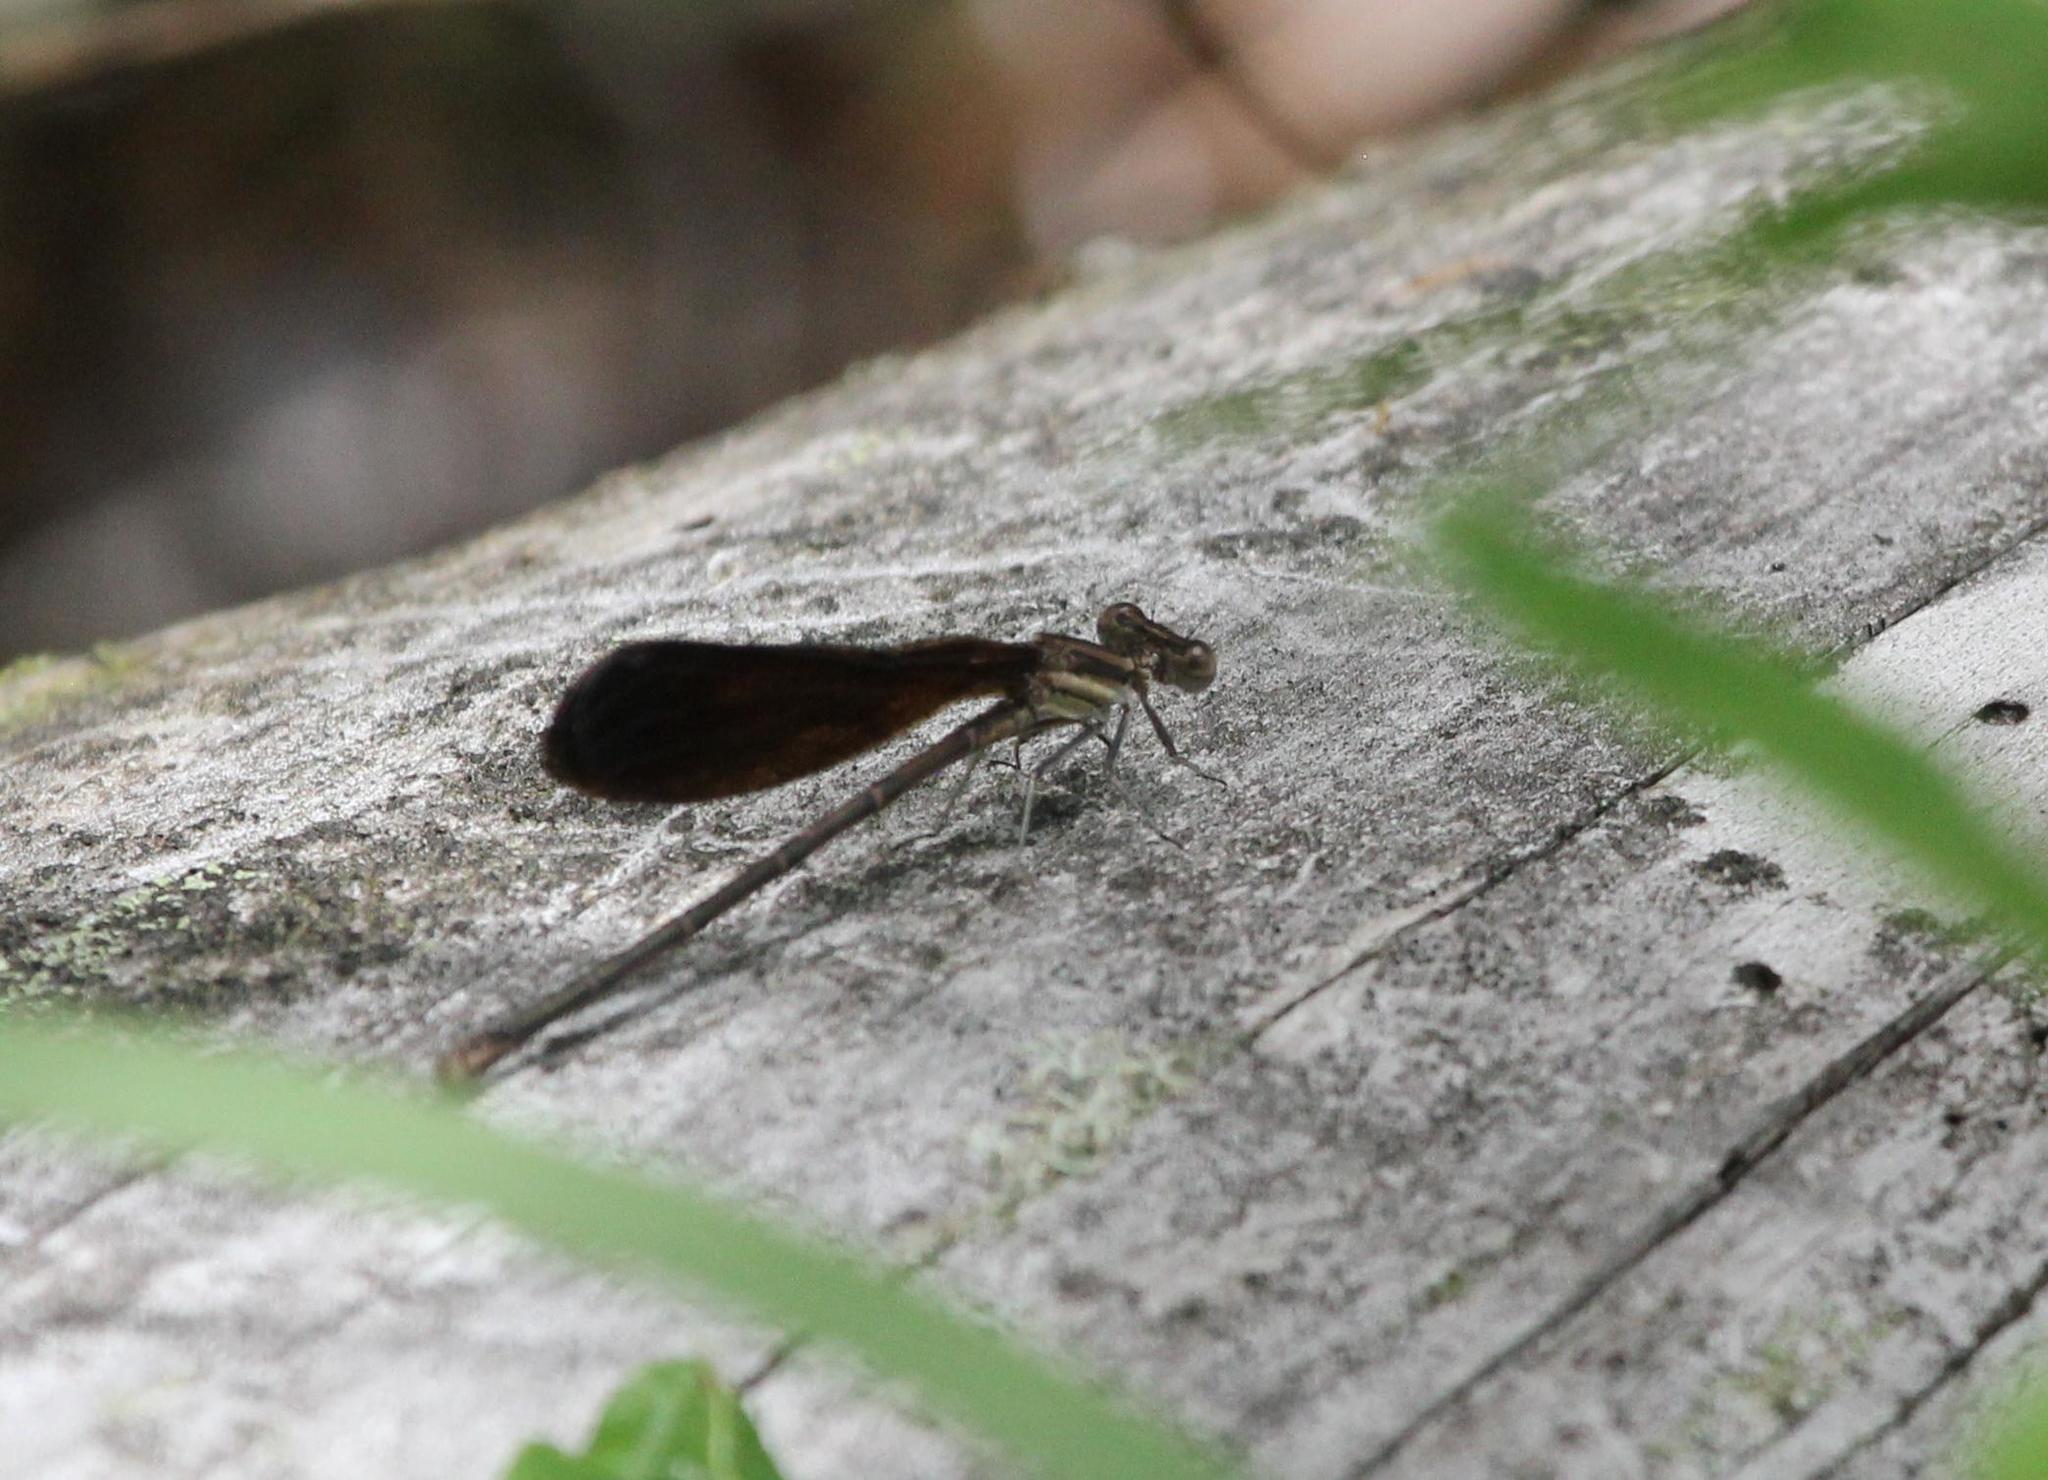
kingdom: Animalia
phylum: Arthropoda
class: Insecta
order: Odonata
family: Coenagrionidae
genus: Argia
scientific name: Argia fumipennis
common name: Variable dancer
